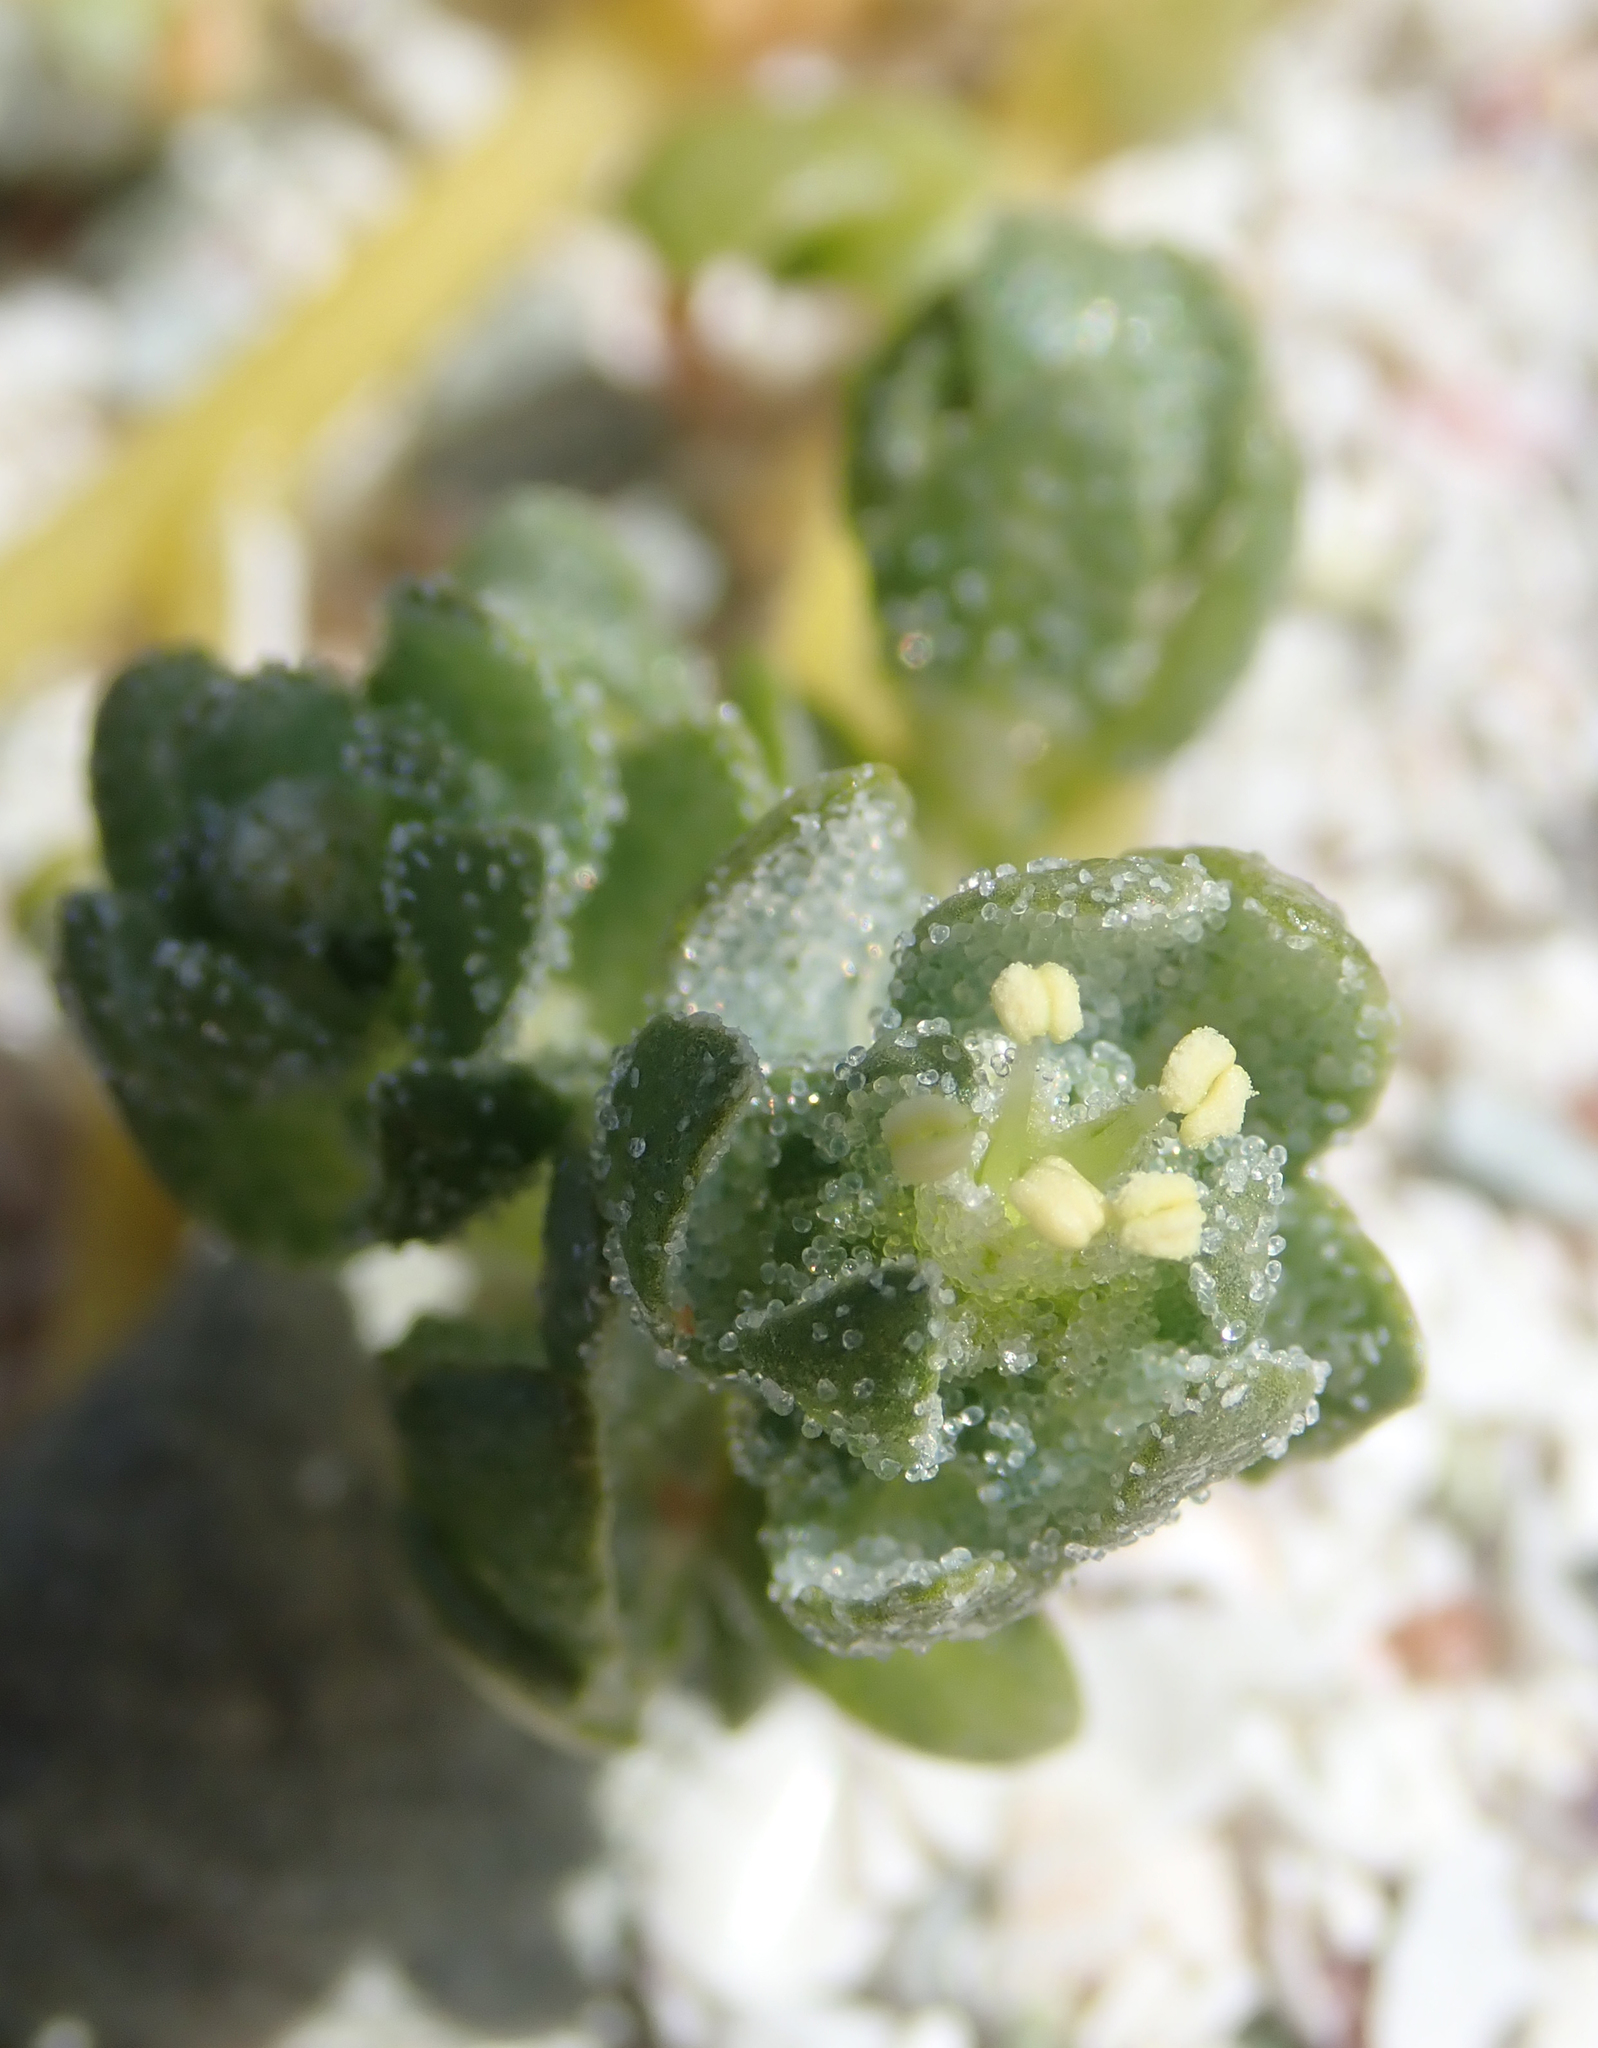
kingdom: Plantae
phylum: Tracheophyta
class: Magnoliopsida
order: Caryophyllales
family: Amaranthaceae
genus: Atriplex
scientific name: Atriplex billardierei
